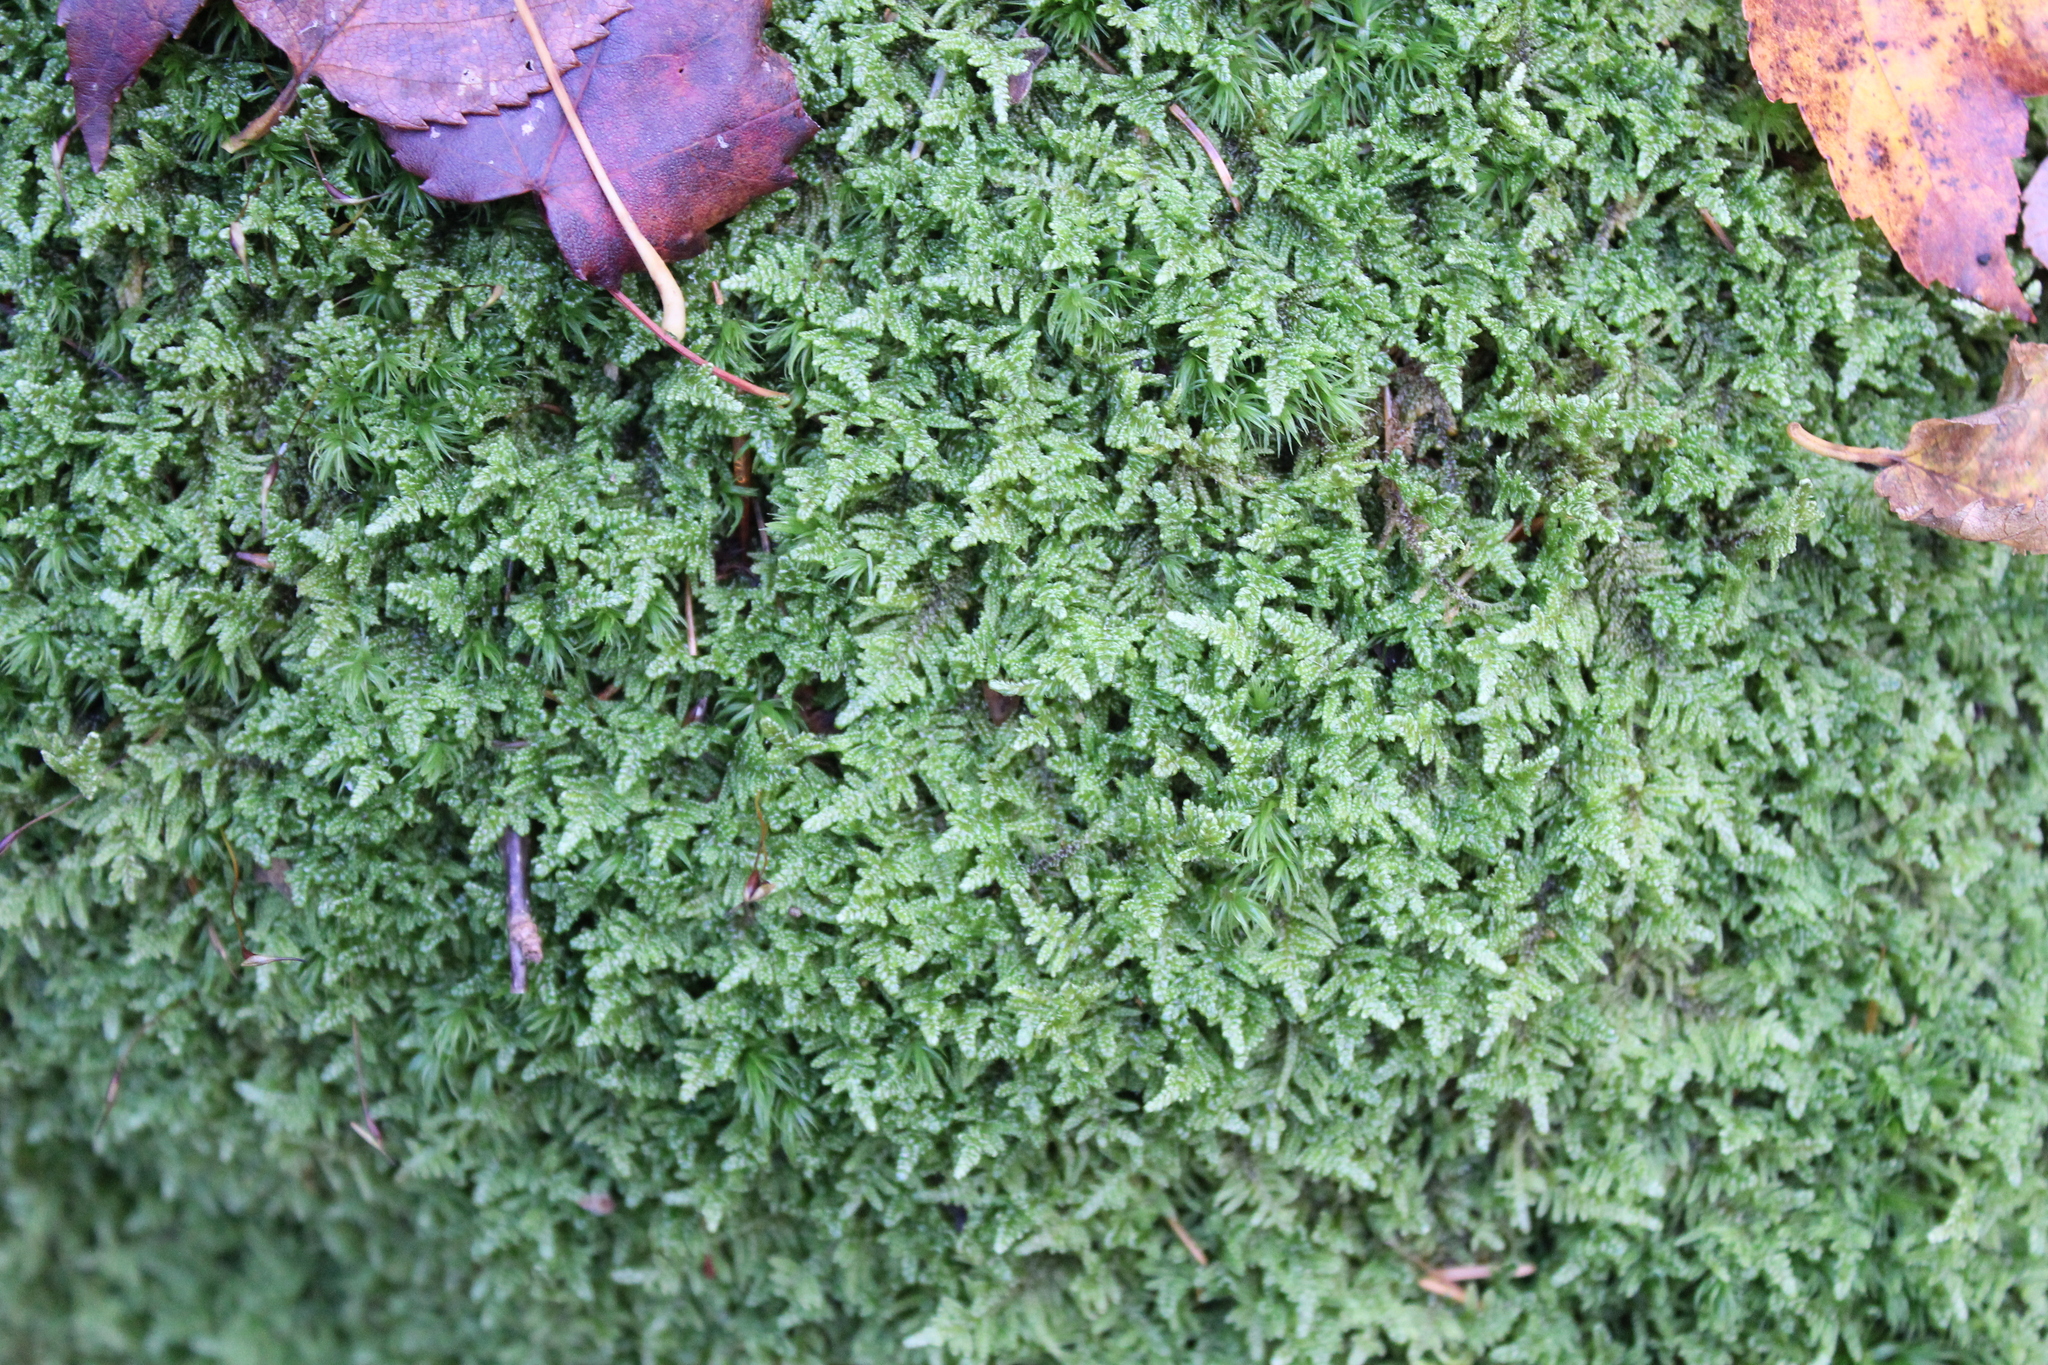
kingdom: Plantae
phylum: Bryophyta
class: Bryopsida
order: Hypnales
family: Callicladiaceae
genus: Callicladium
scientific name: Callicladium imponens
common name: Brocade moss
